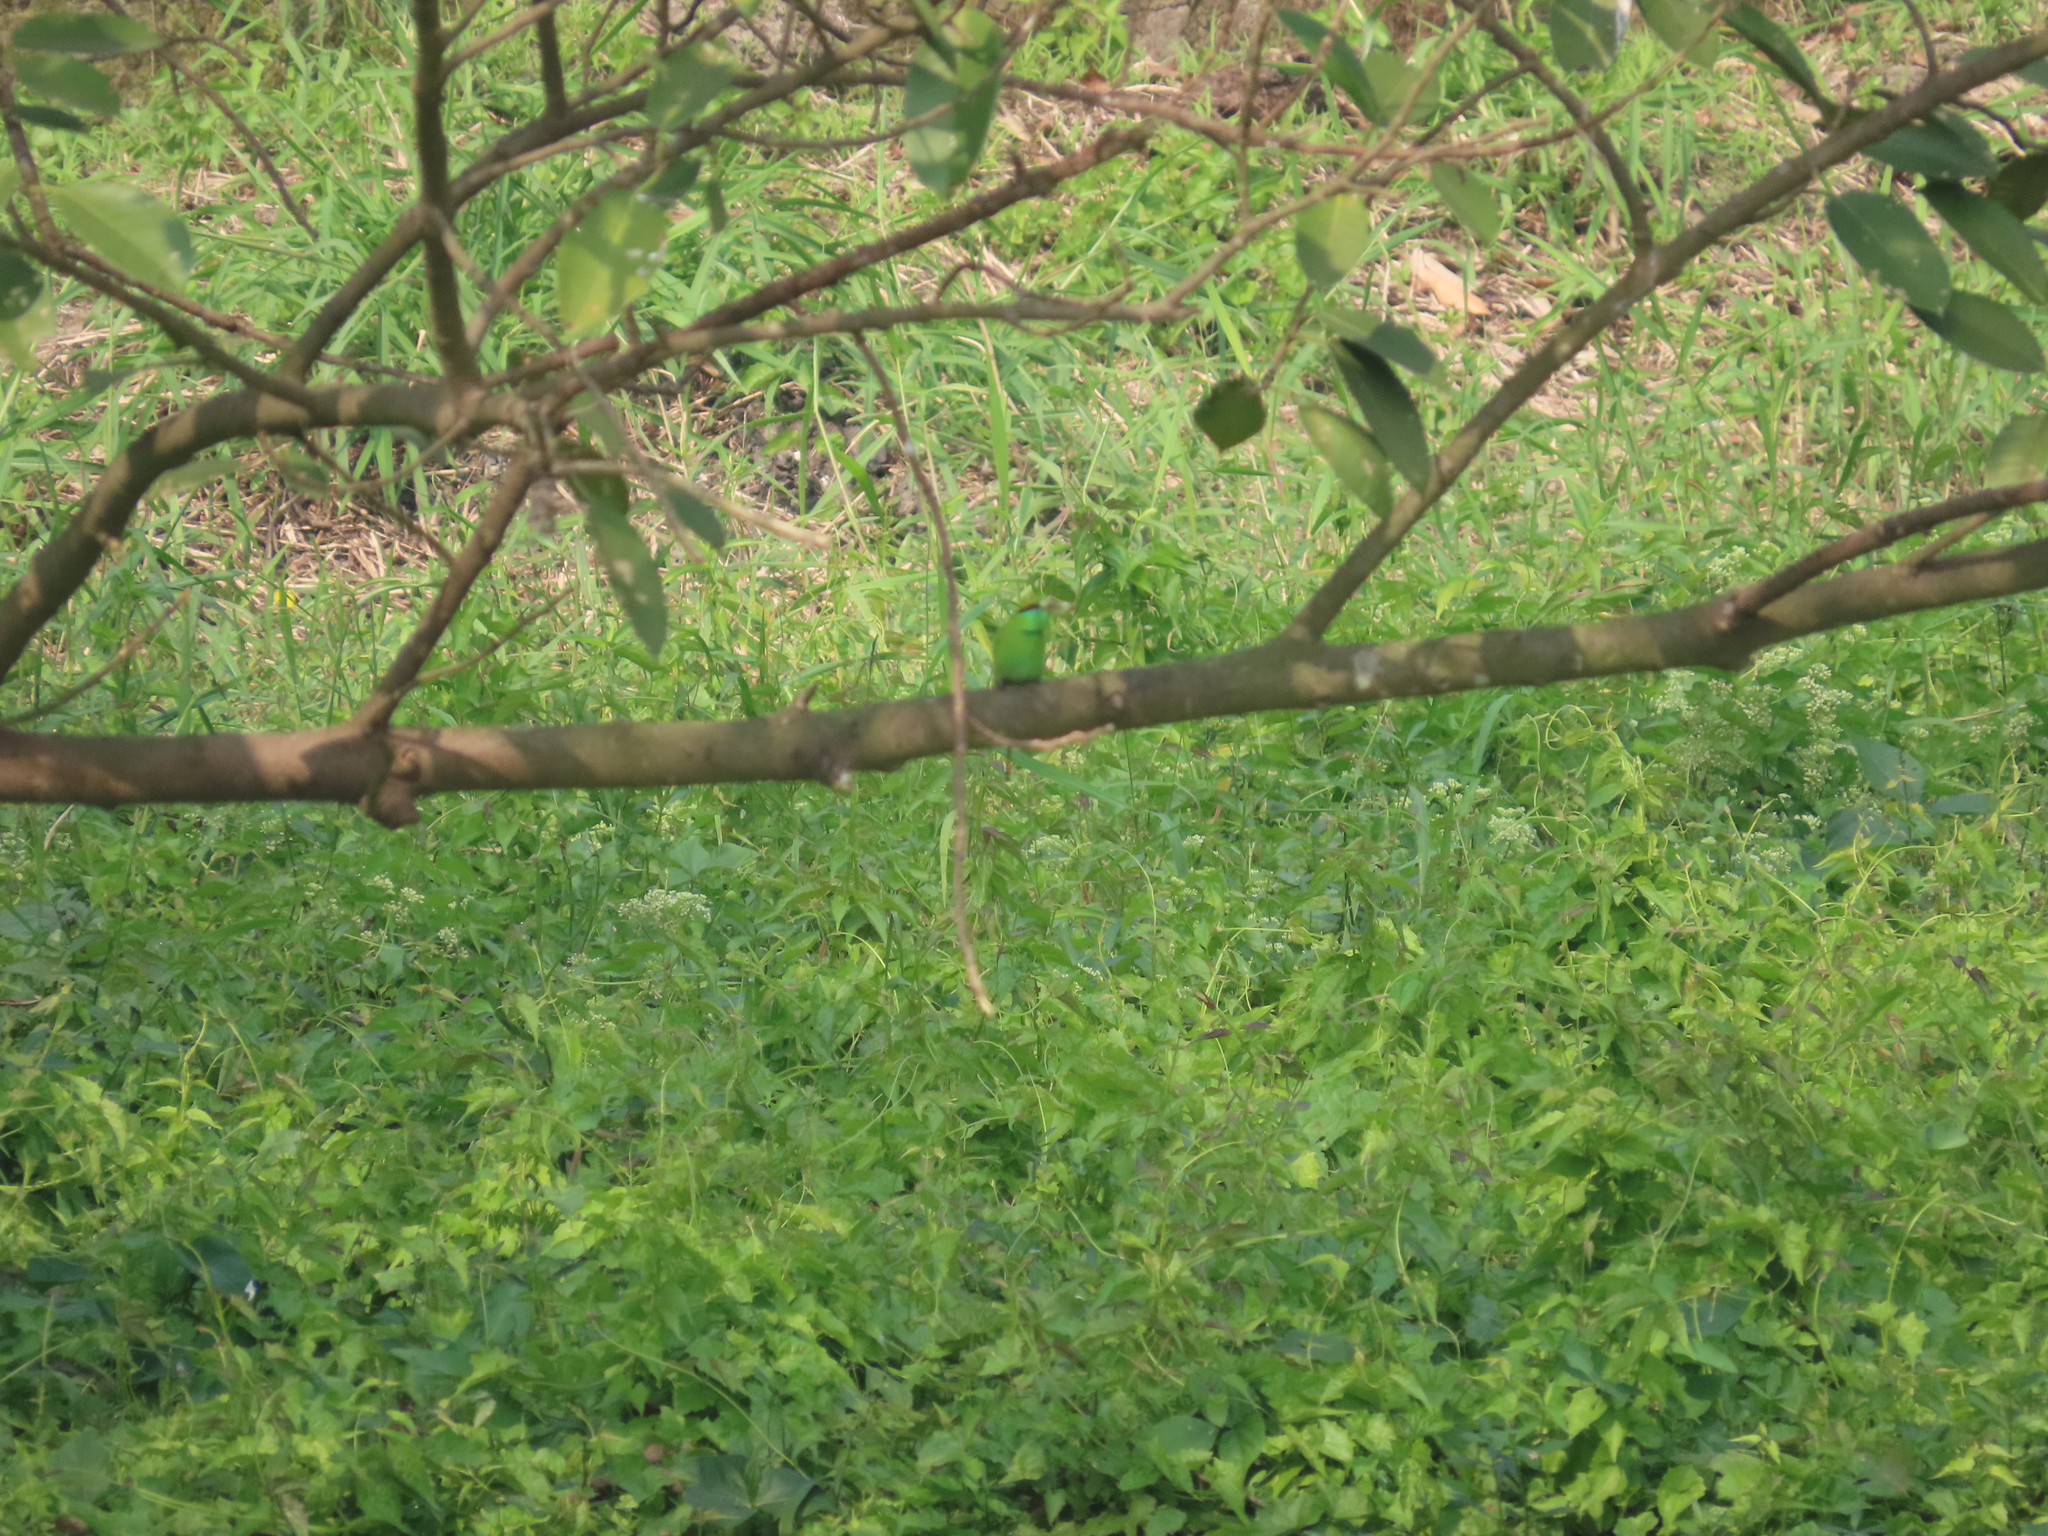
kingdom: Animalia
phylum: Chordata
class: Aves
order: Coraciiformes
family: Meropidae
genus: Merops
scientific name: Merops orientalis
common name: Green bee-eater
